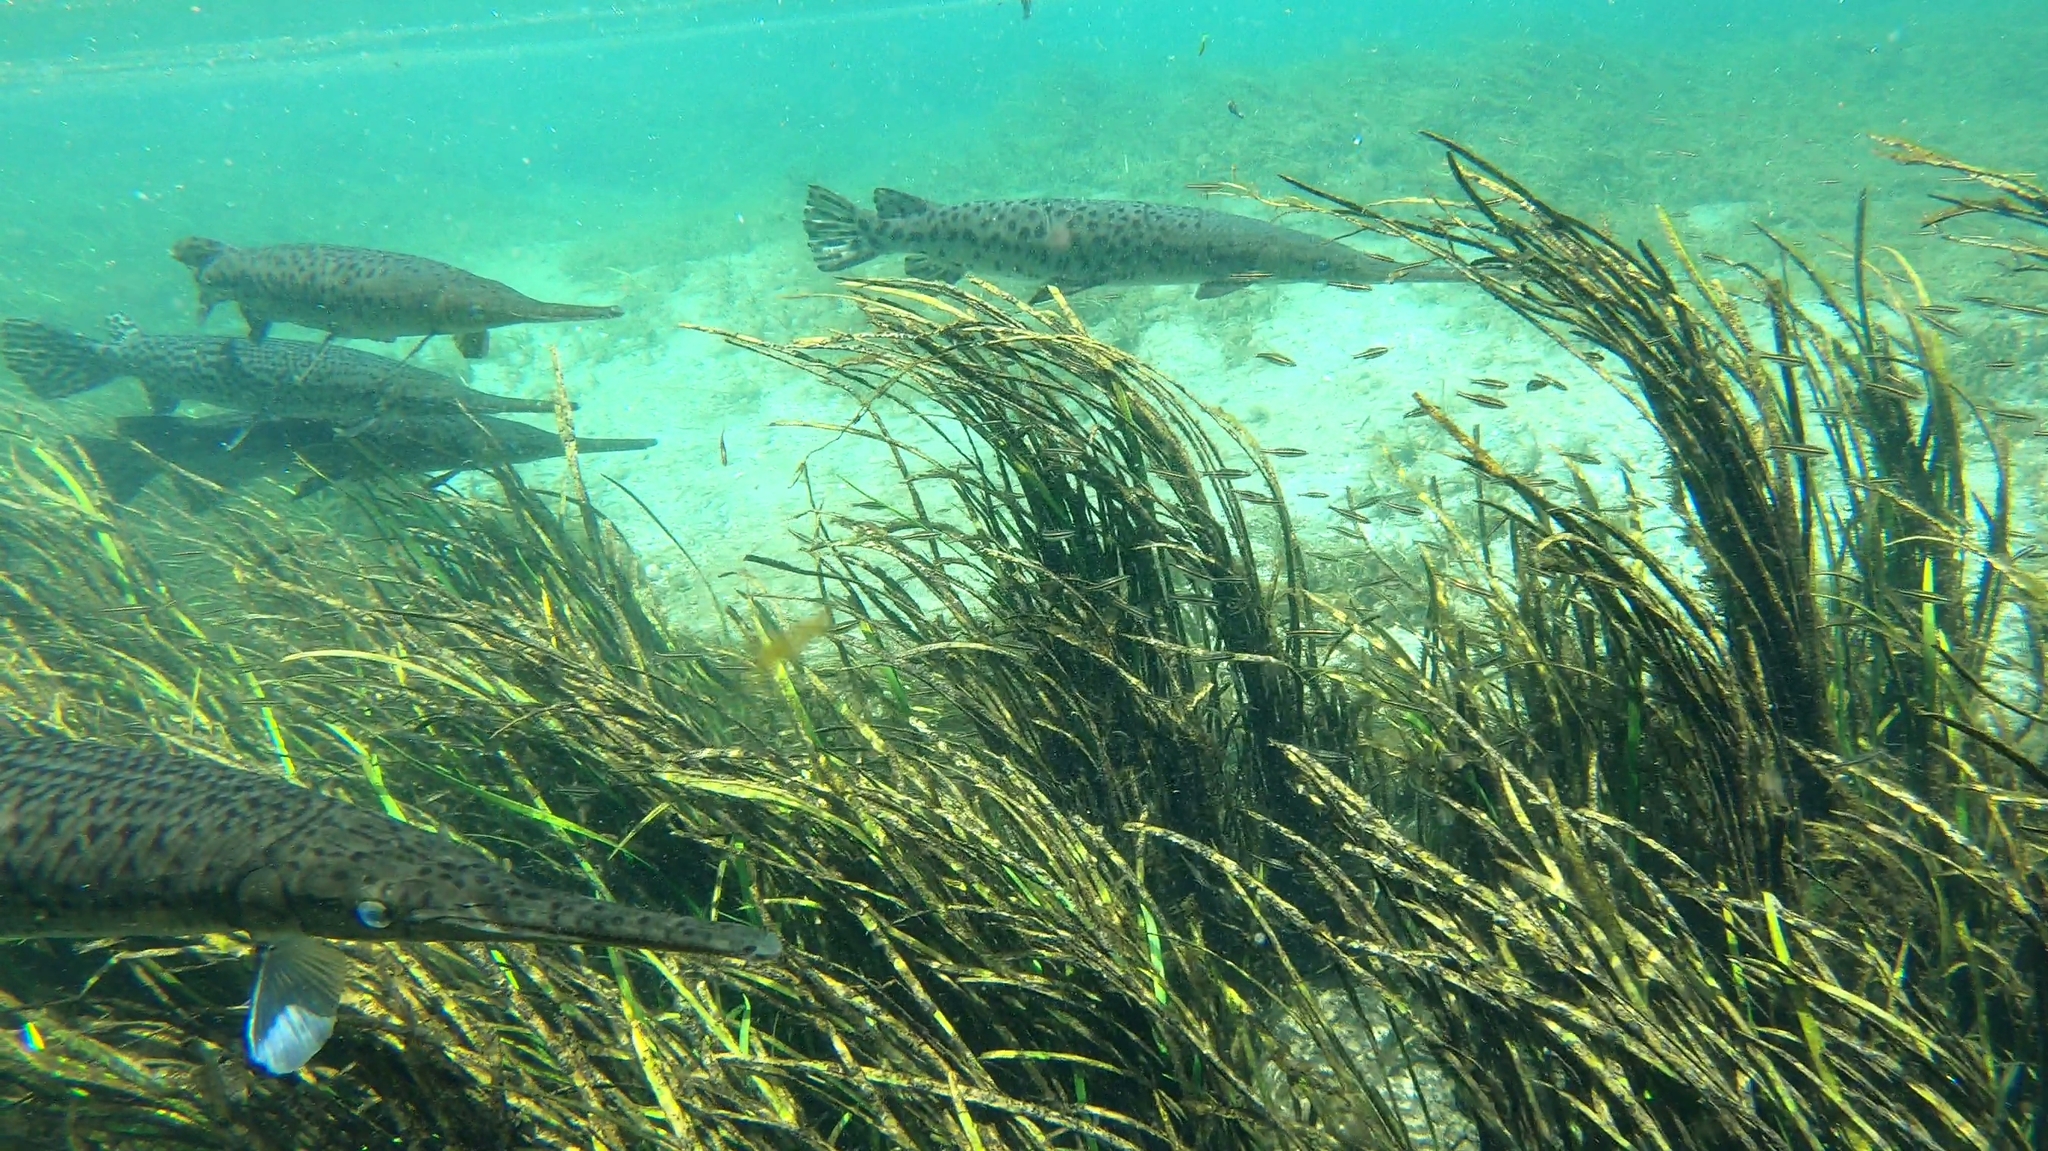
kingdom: Animalia
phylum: Chordata
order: Lepisosteiformes
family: Lepisosteidae
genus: Lepisosteus
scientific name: Lepisosteus osseus
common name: Longnose gar
